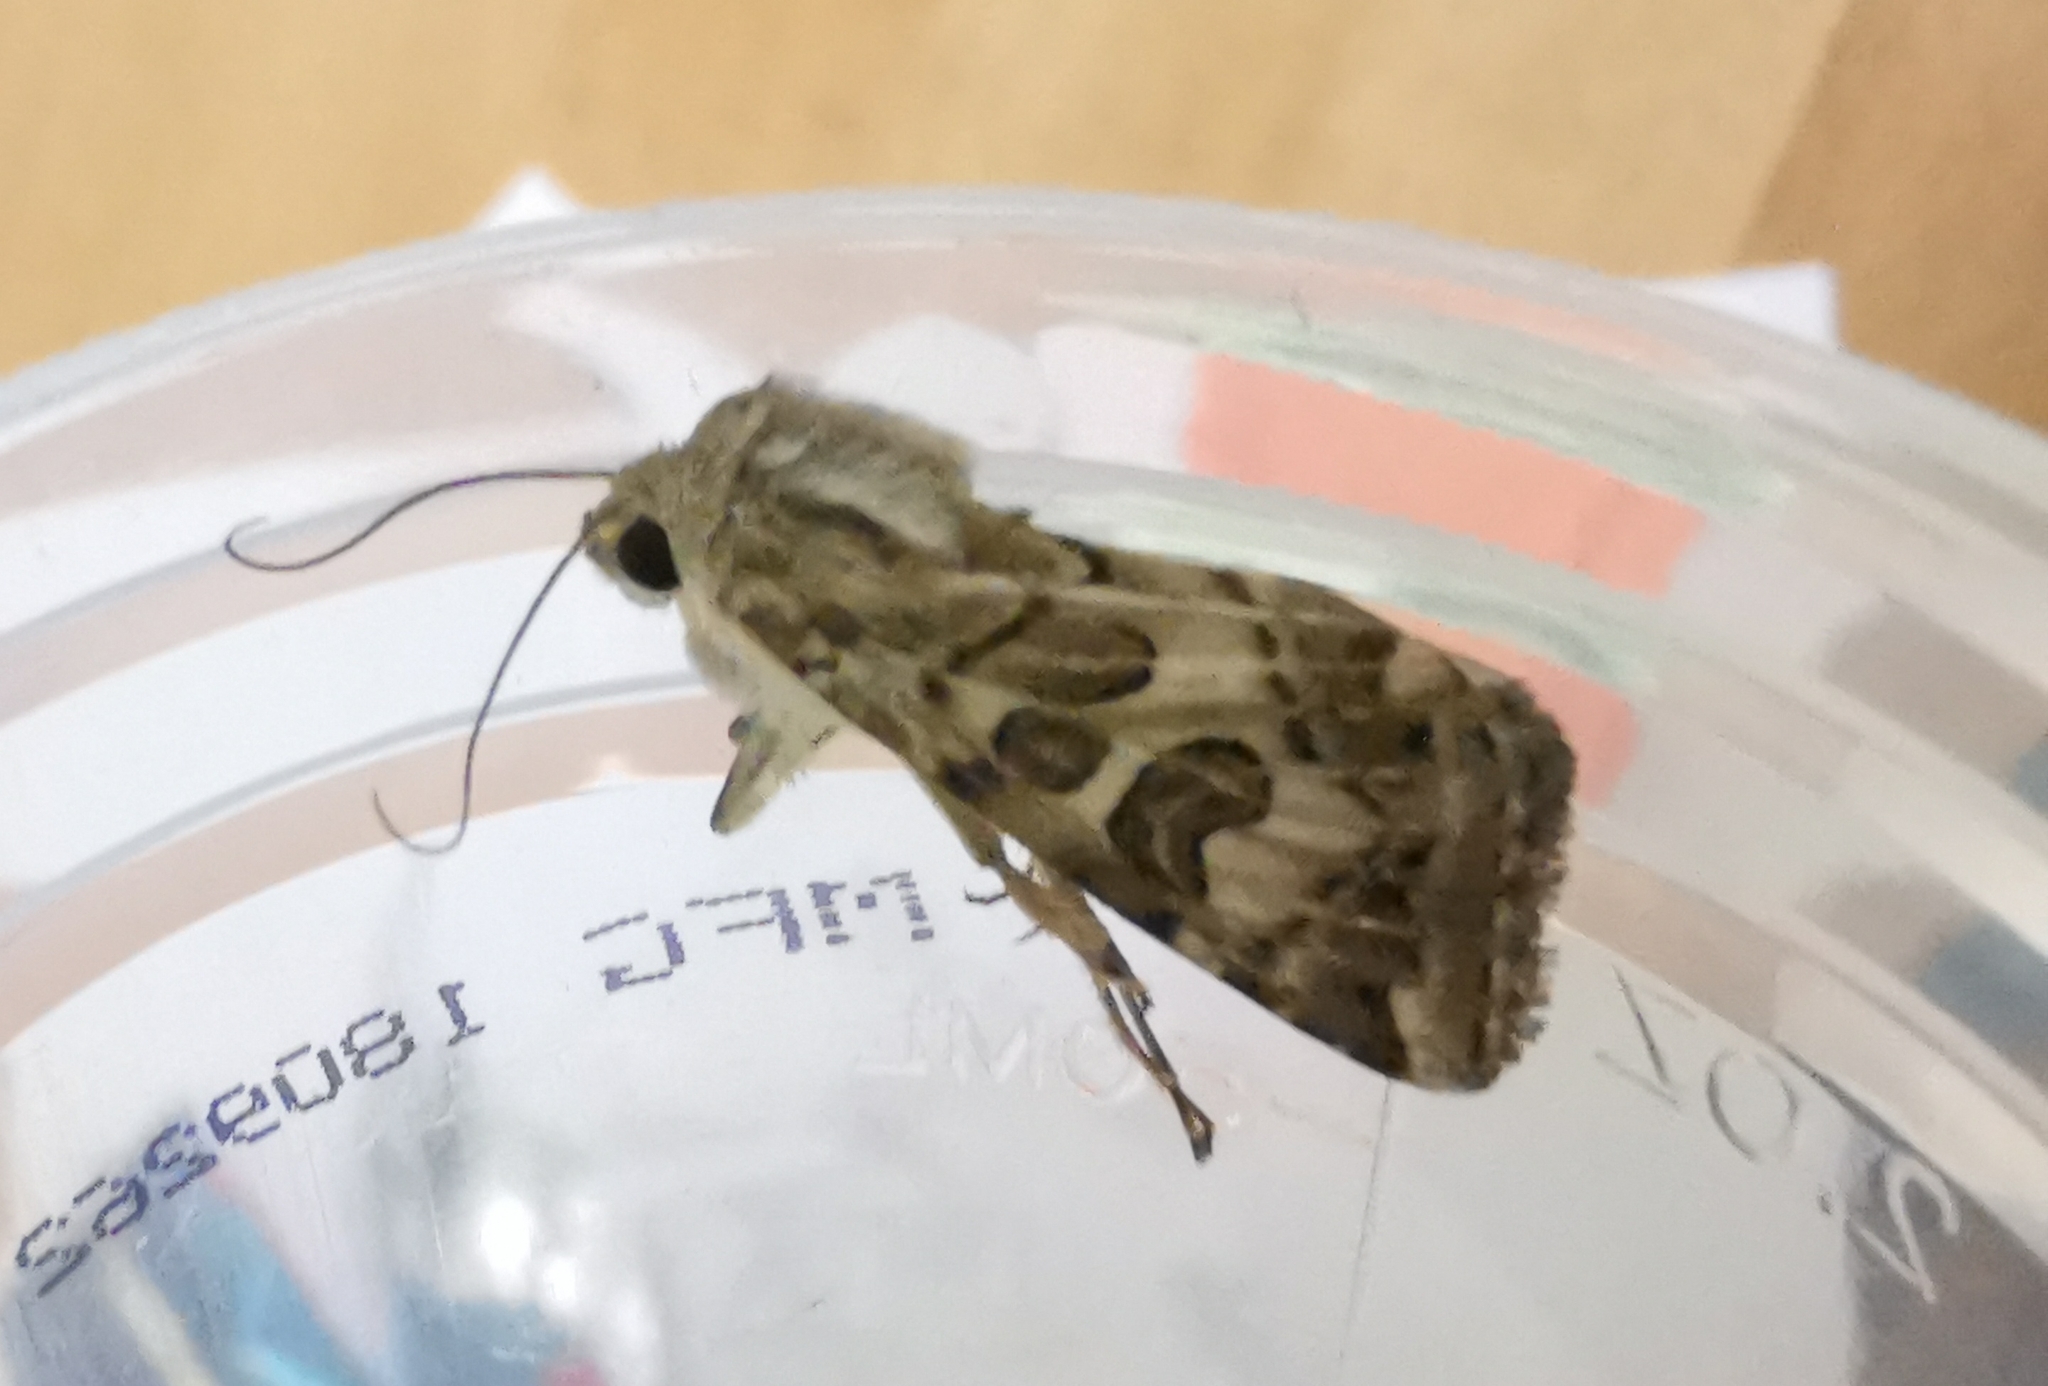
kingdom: Animalia
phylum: Arthropoda
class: Insecta
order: Lepidoptera
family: Noctuidae
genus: Protoschinia
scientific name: Protoschinia scutosa
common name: Spotted clover
